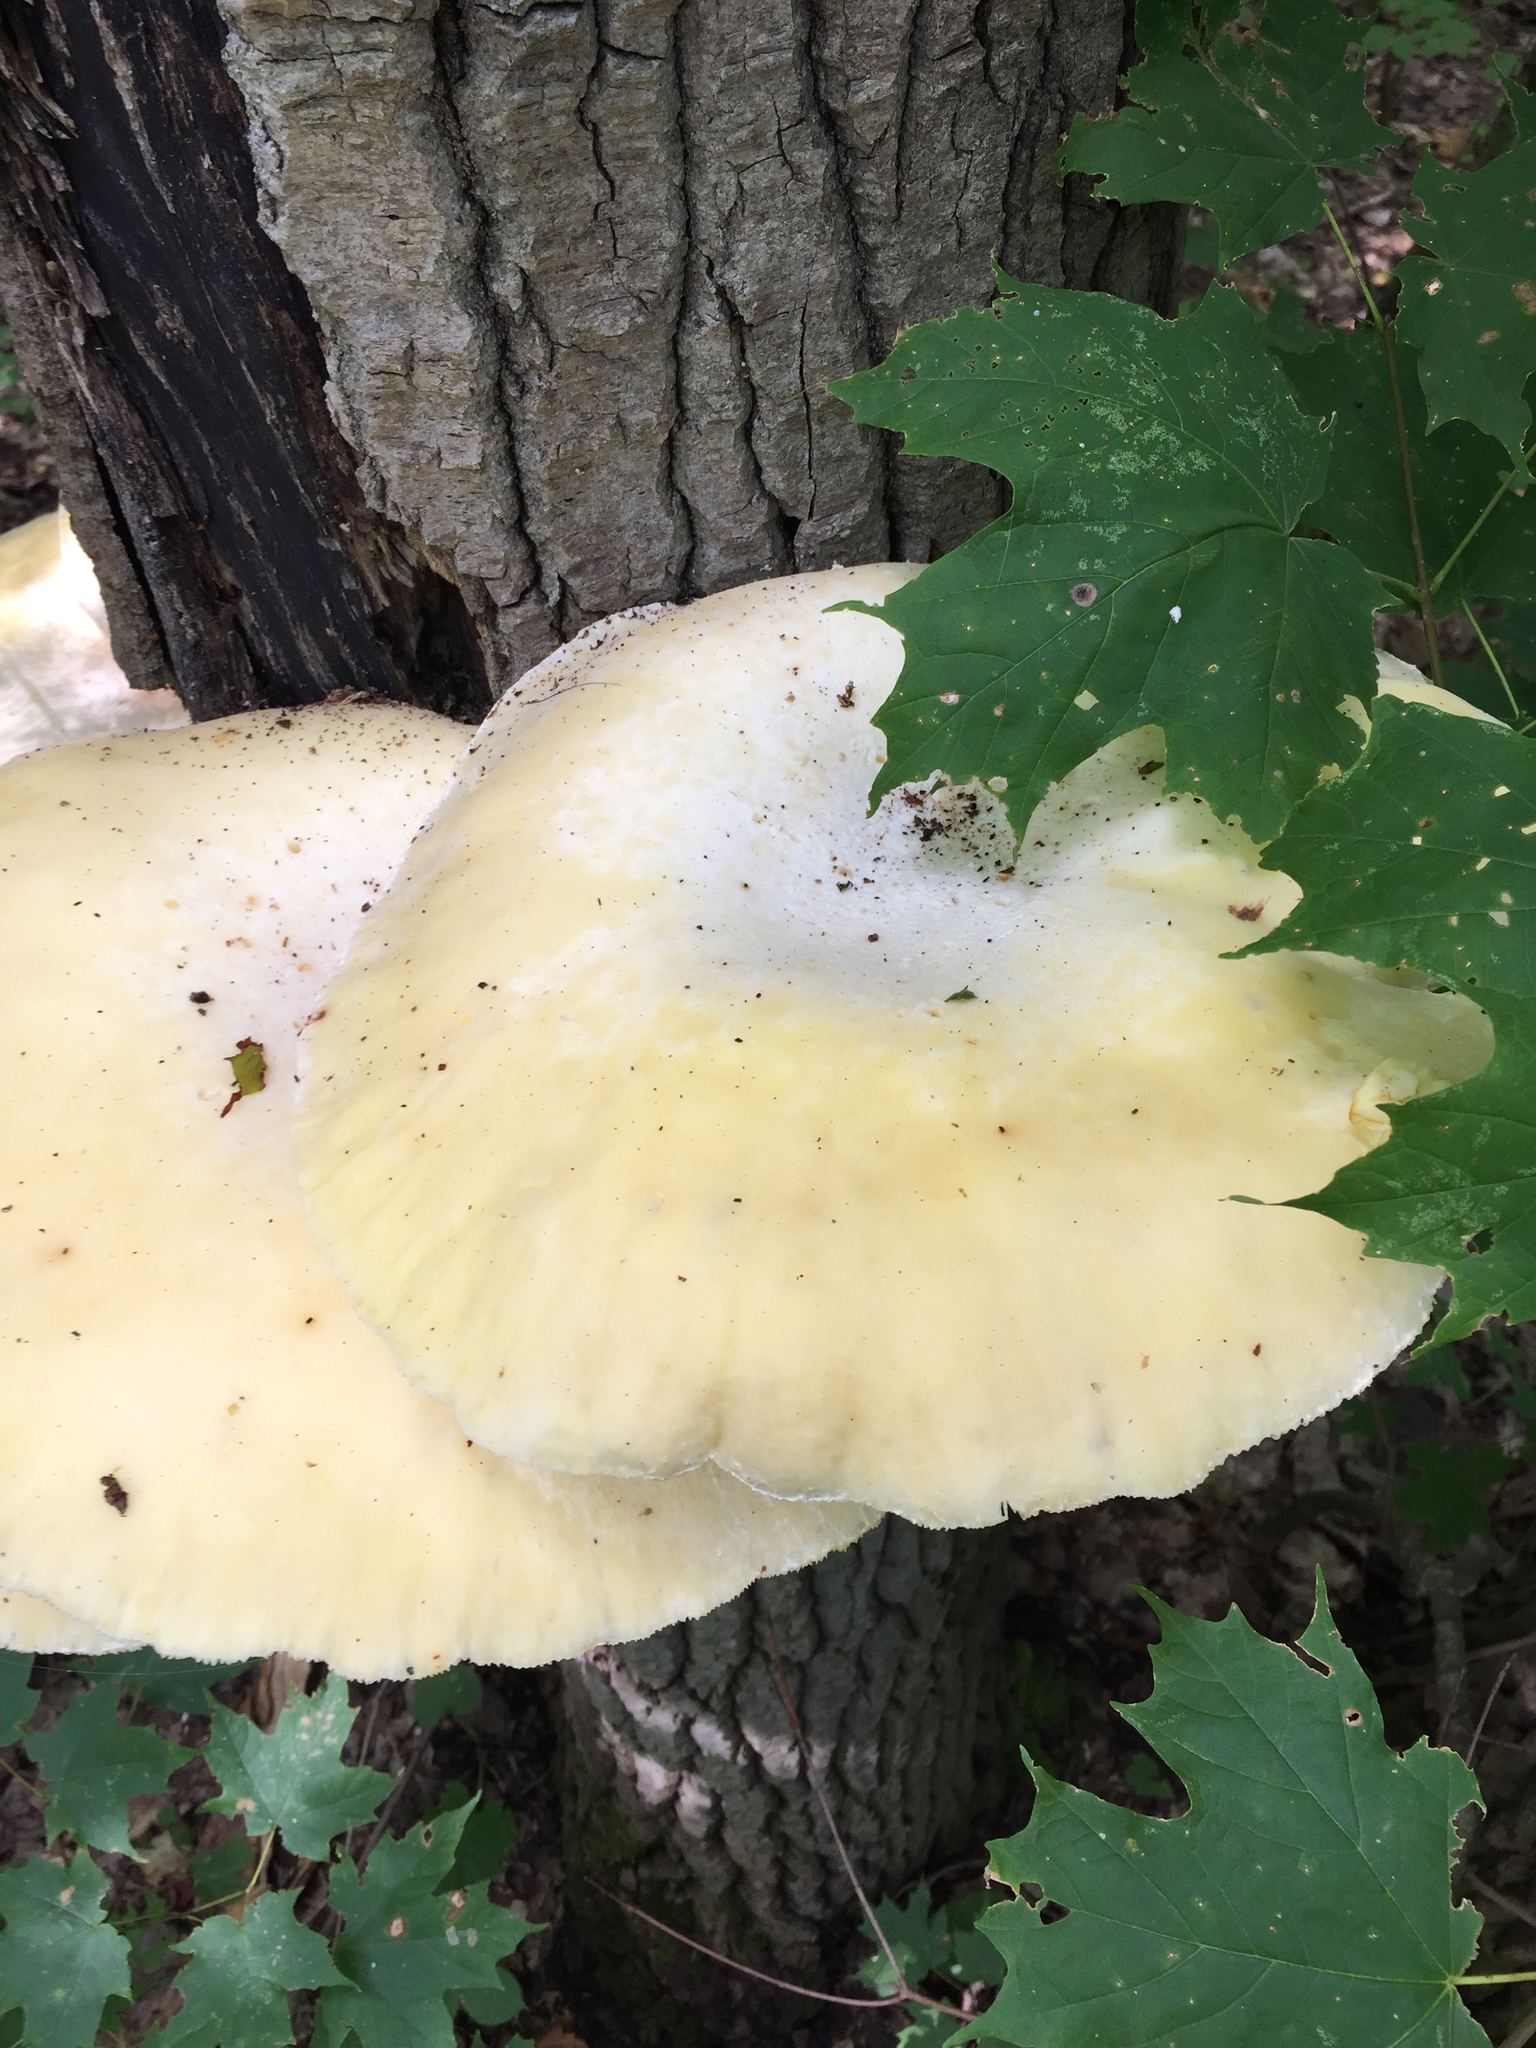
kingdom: Fungi
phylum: Basidiomycota
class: Agaricomycetes
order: Polyporales
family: Polyporaceae
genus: Lentinus
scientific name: Lentinus levis
